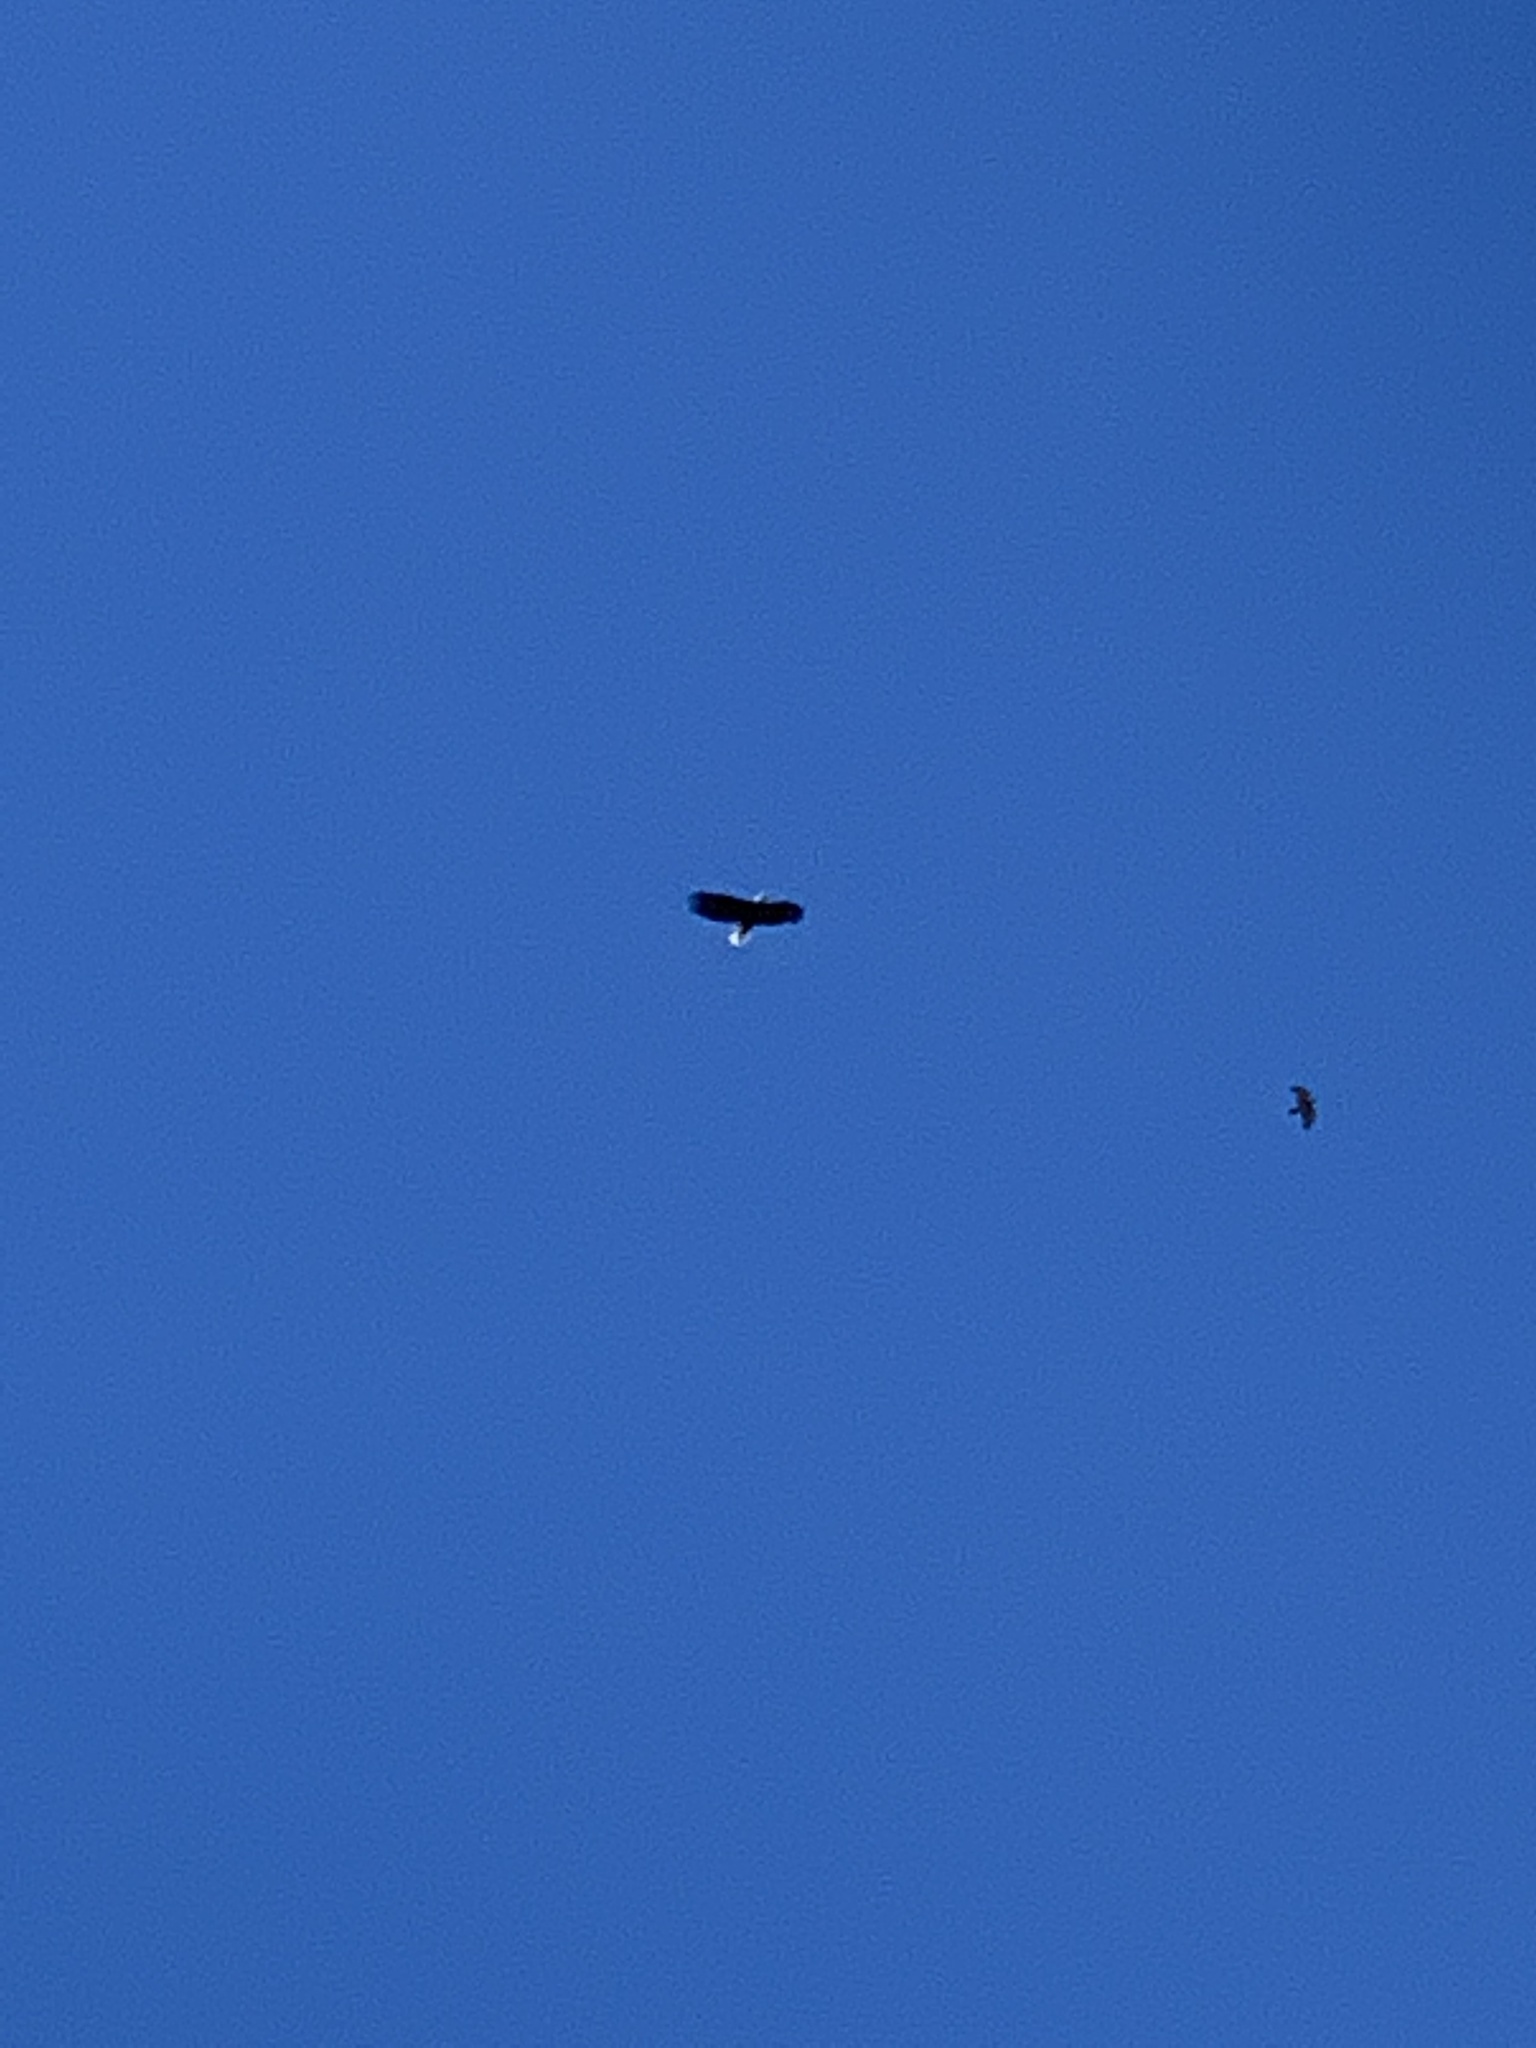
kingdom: Animalia
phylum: Chordata
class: Aves
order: Accipitriformes
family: Accipitridae
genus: Haliaeetus
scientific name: Haliaeetus leucocephalus
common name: Bald eagle
